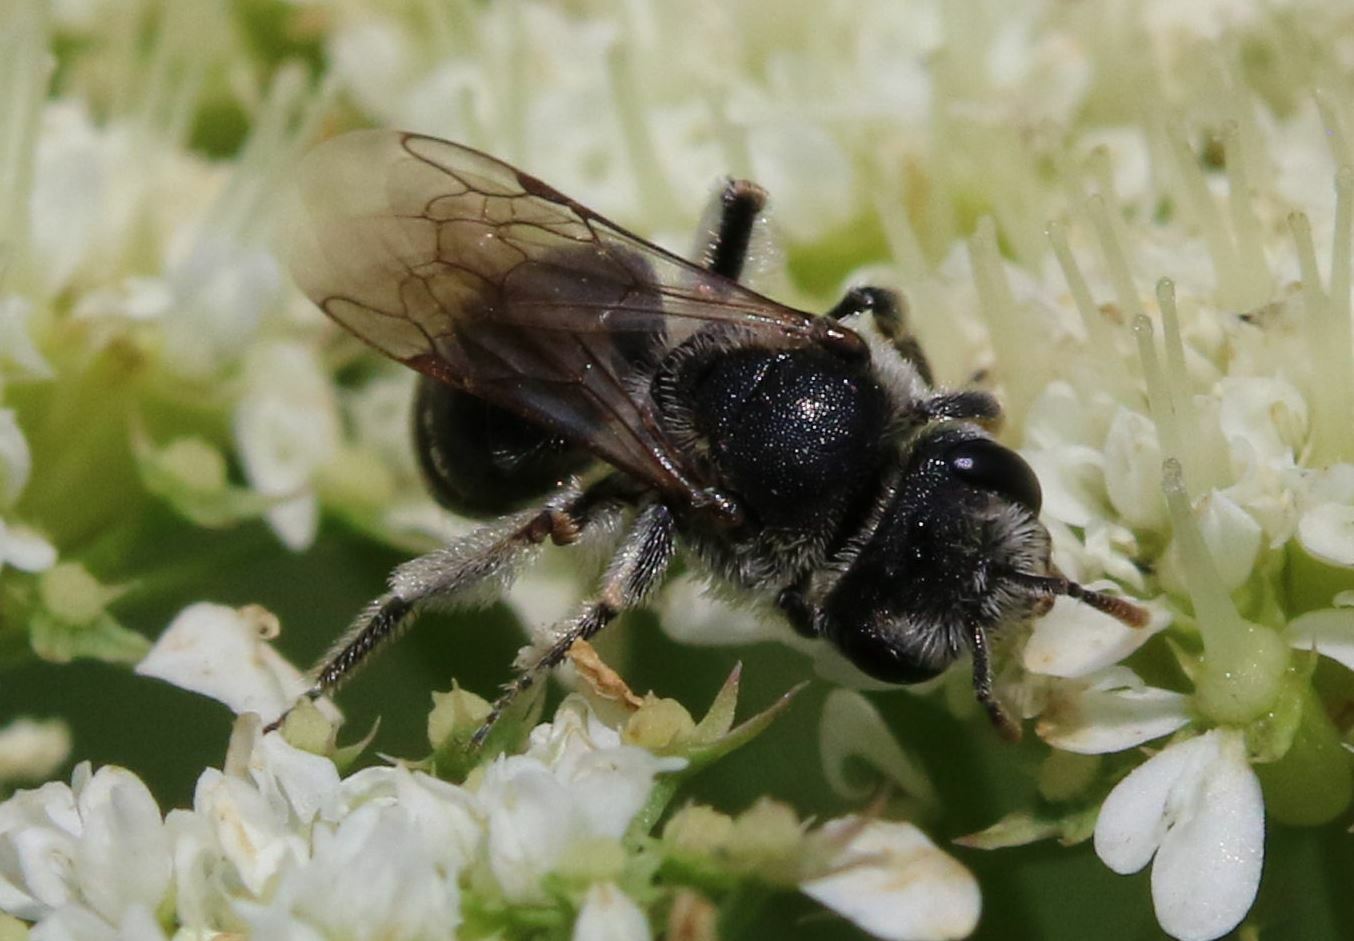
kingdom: Animalia
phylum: Arthropoda
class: Insecta
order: Hymenoptera
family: Andrenidae
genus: Andrena
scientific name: Andrena colletiformis
